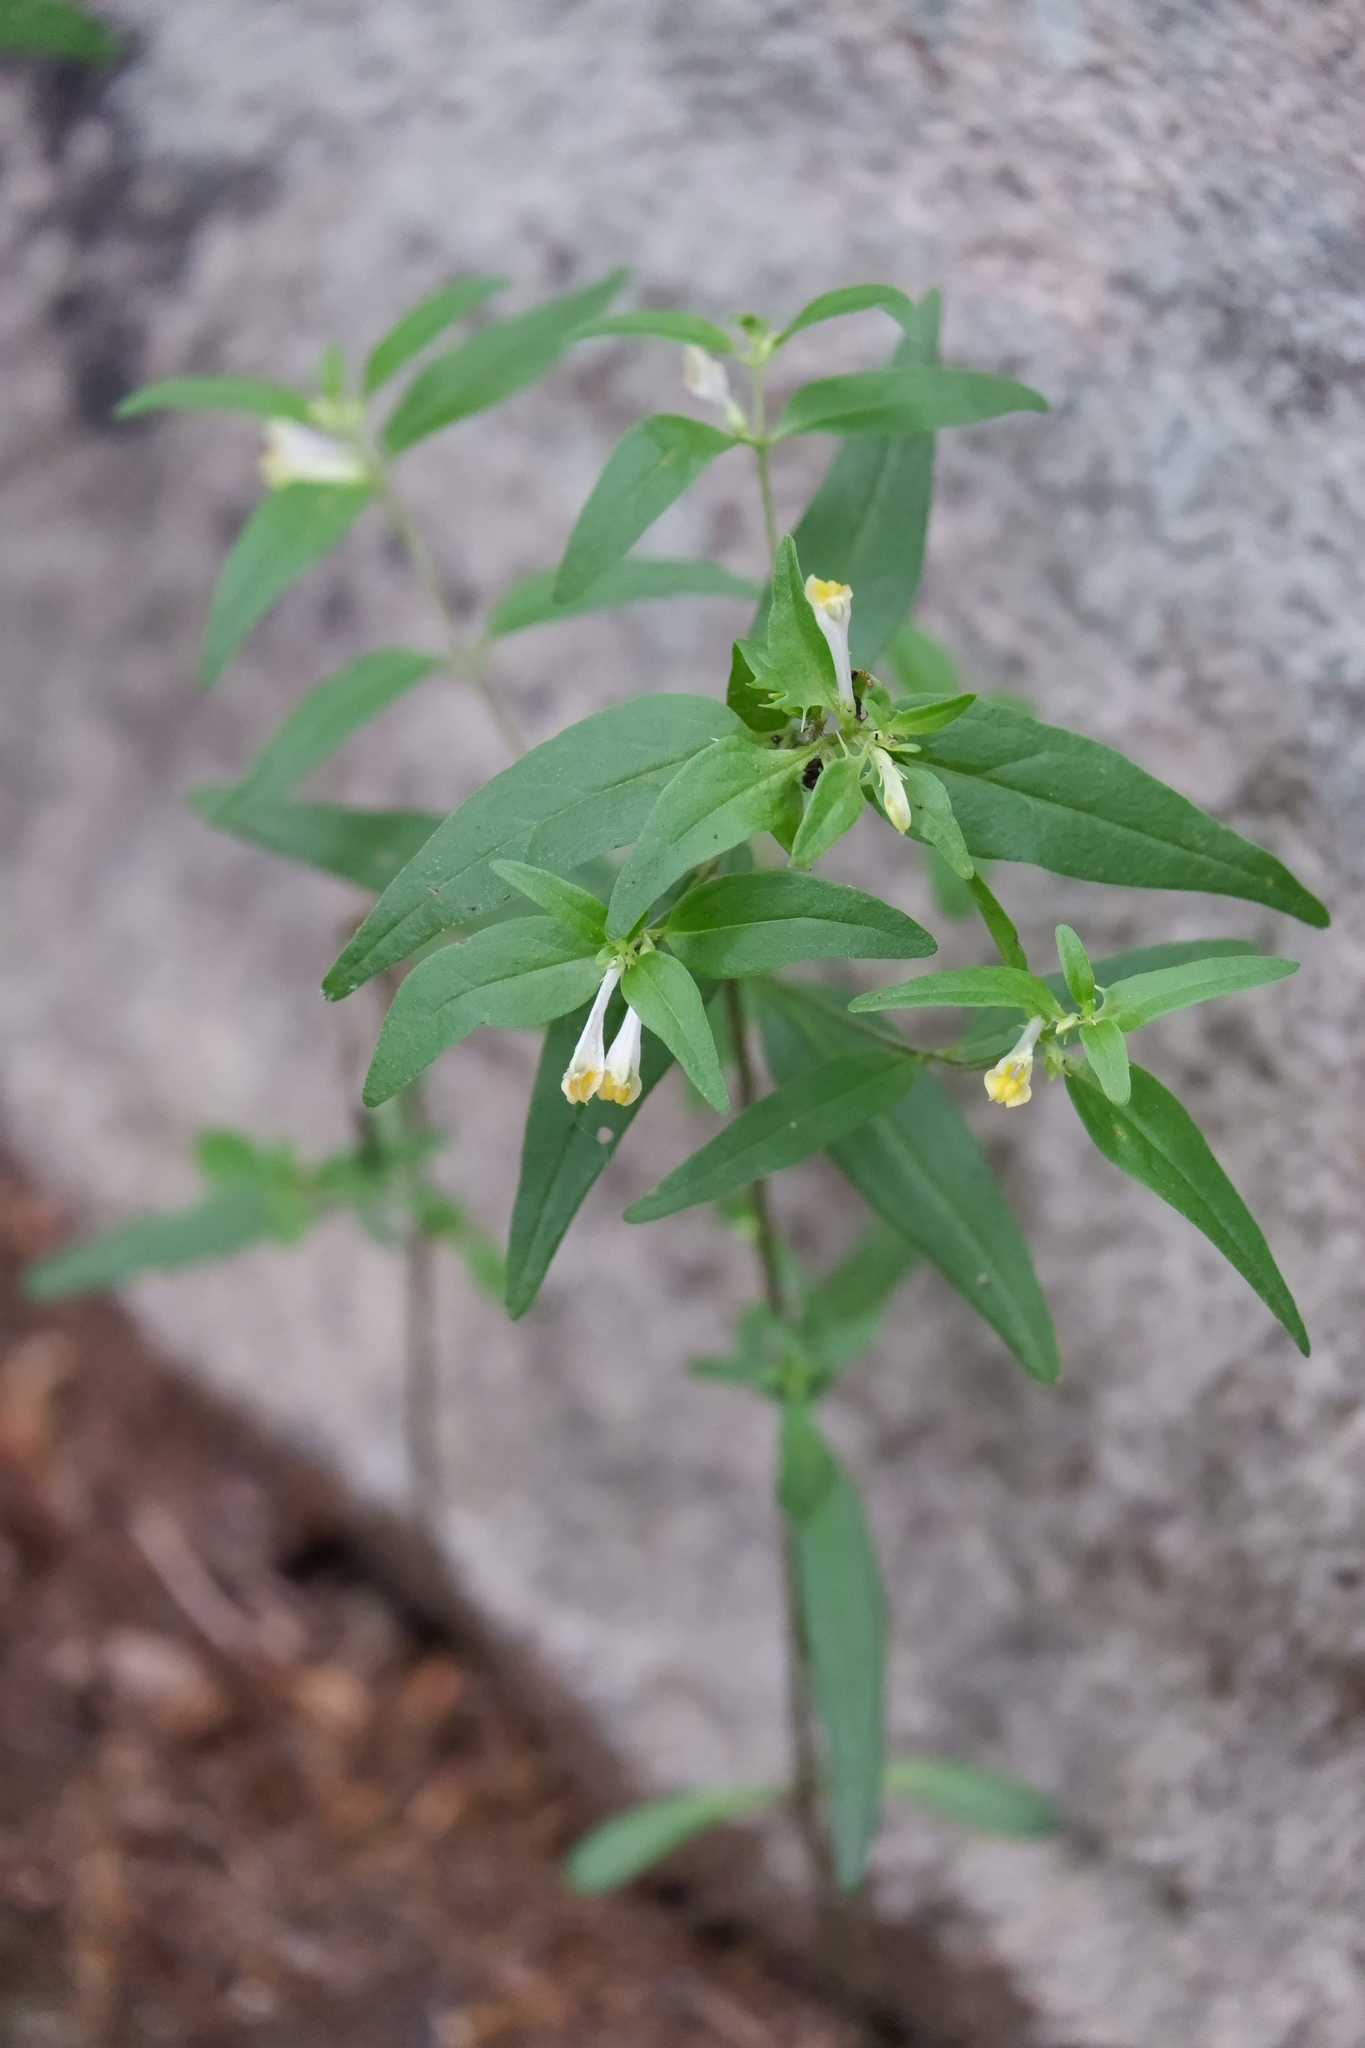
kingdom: Plantae
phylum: Tracheophyta
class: Magnoliopsida
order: Lamiales
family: Orobanchaceae
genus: Melampyrum
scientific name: Melampyrum lineare
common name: American cow-wheat
